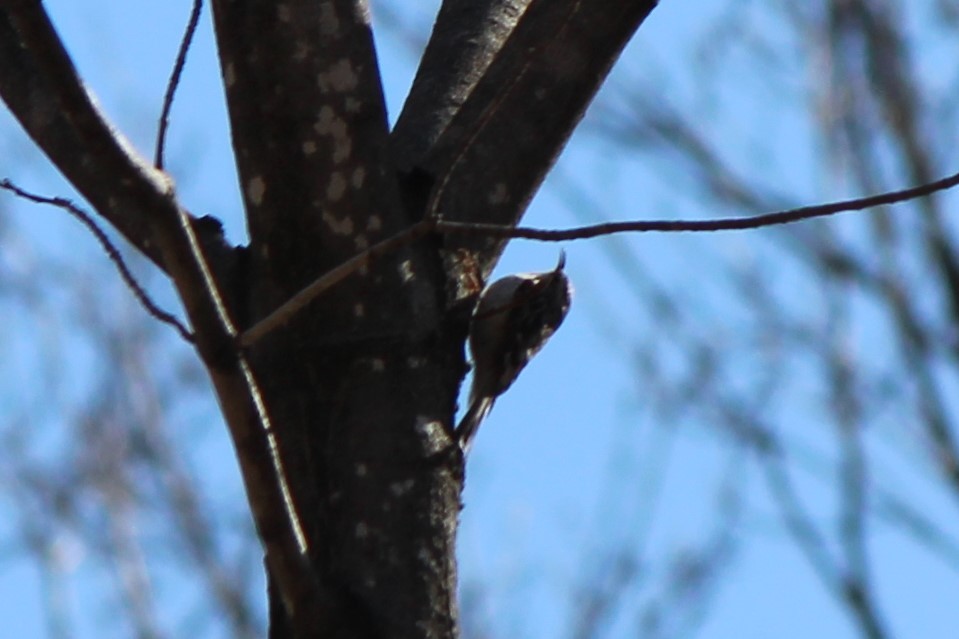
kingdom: Animalia
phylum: Chordata
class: Aves
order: Passeriformes
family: Certhiidae
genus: Certhia
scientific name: Certhia americana
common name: Brown creeper
